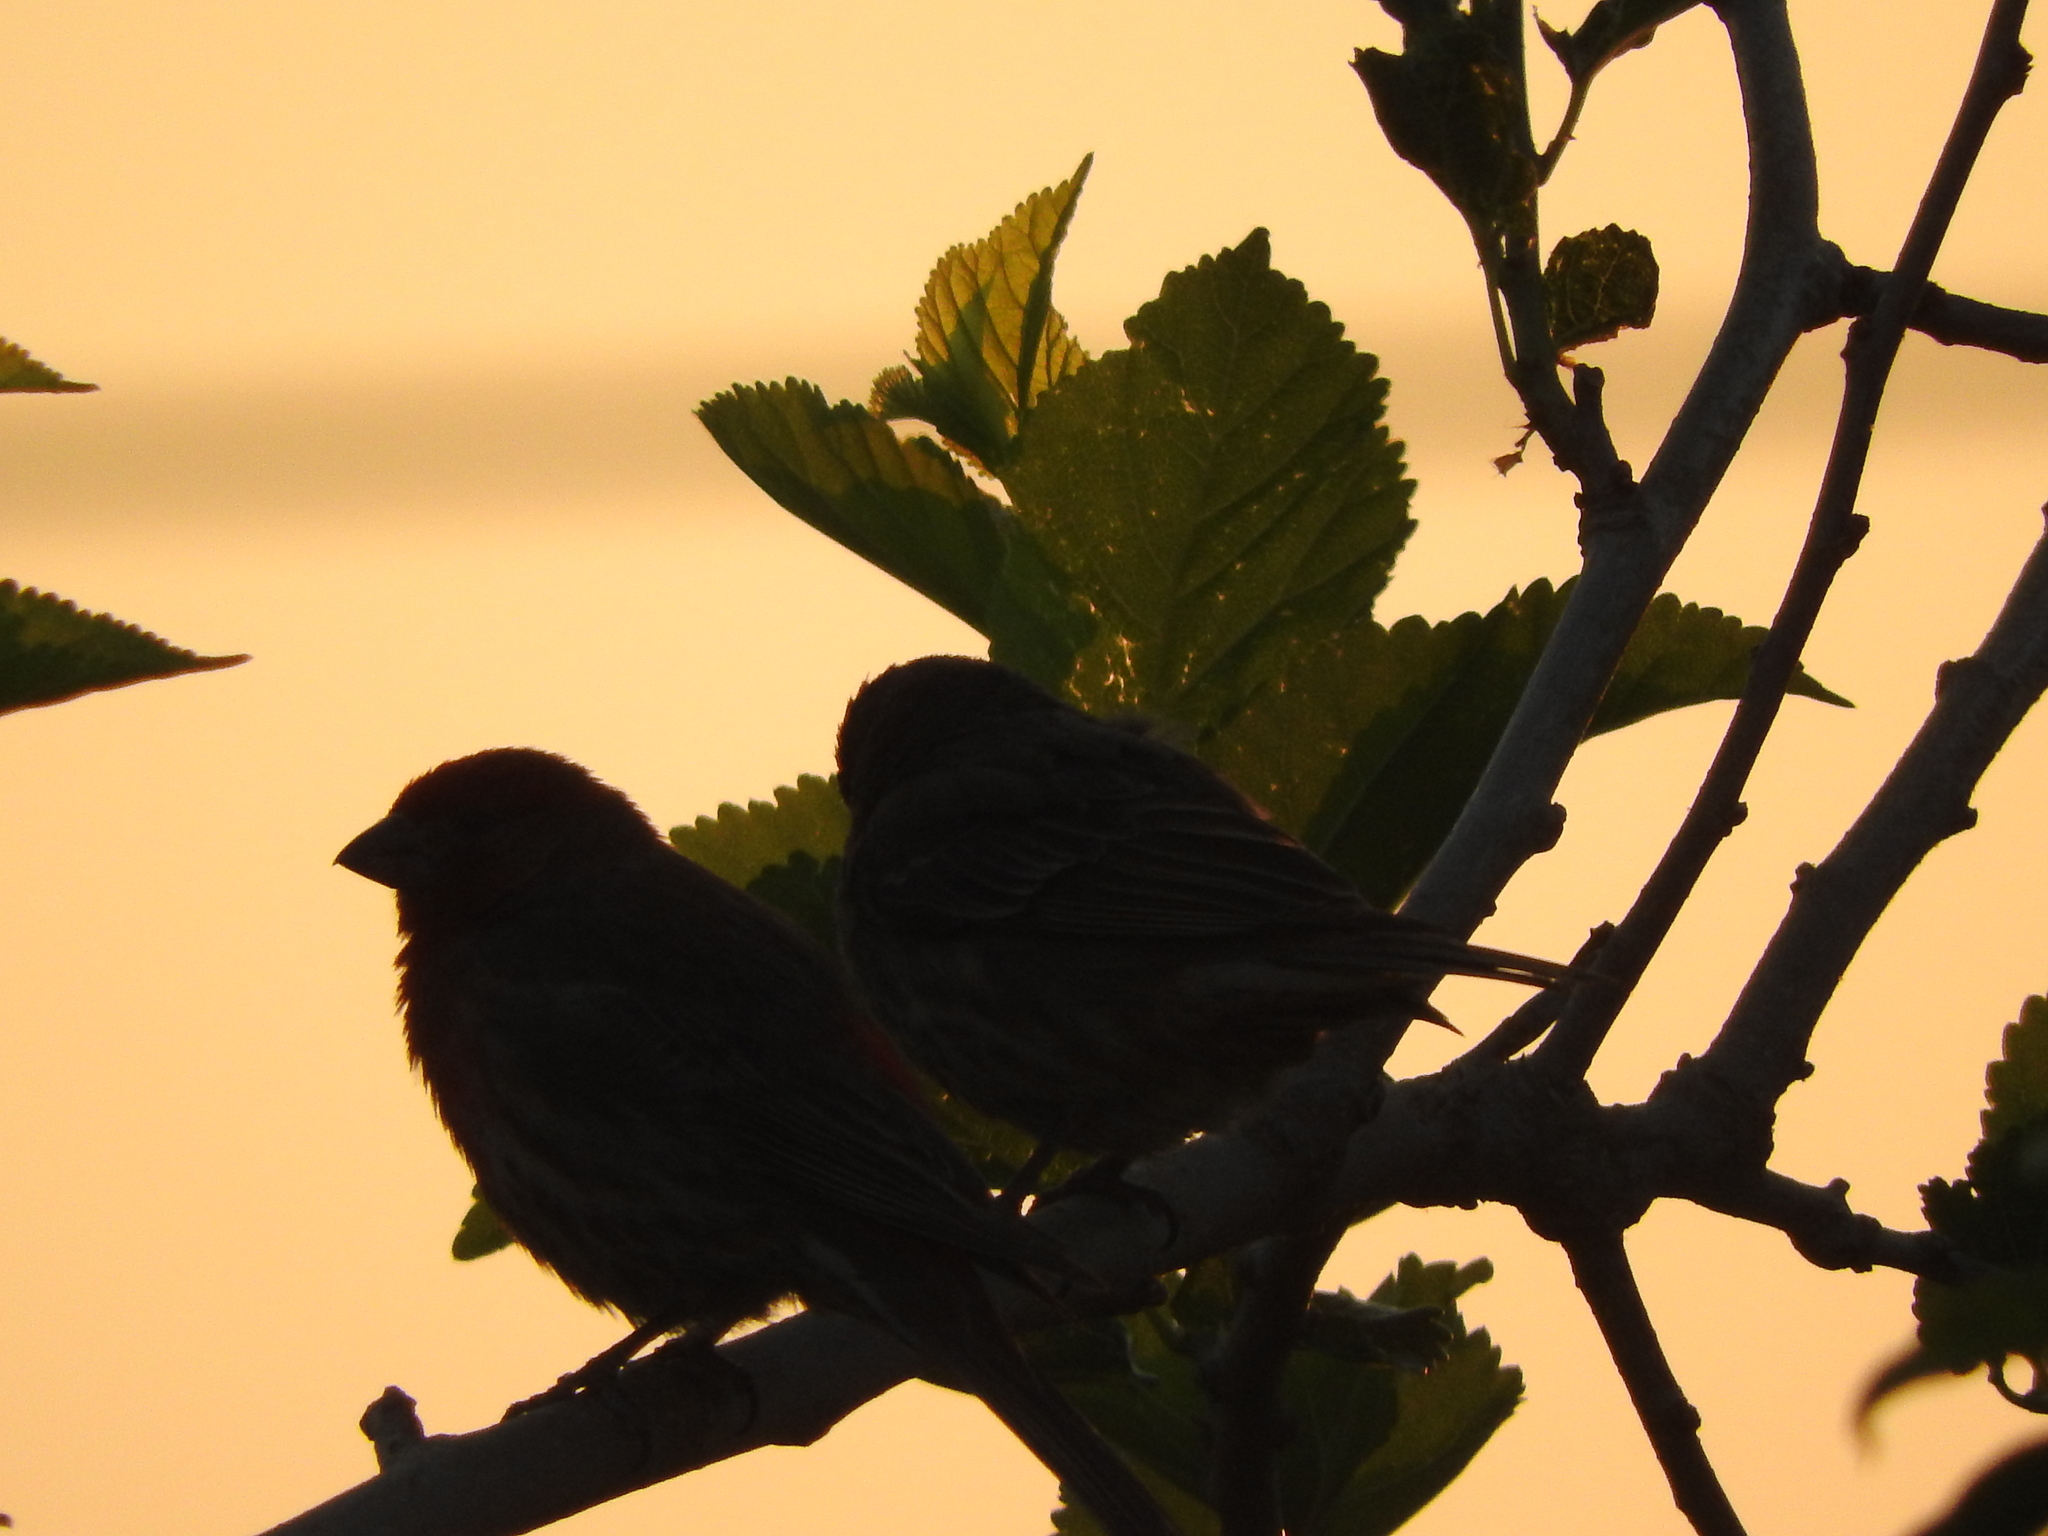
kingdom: Animalia
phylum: Chordata
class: Aves
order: Passeriformes
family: Fringillidae
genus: Haemorhous
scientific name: Haemorhous mexicanus
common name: House finch
